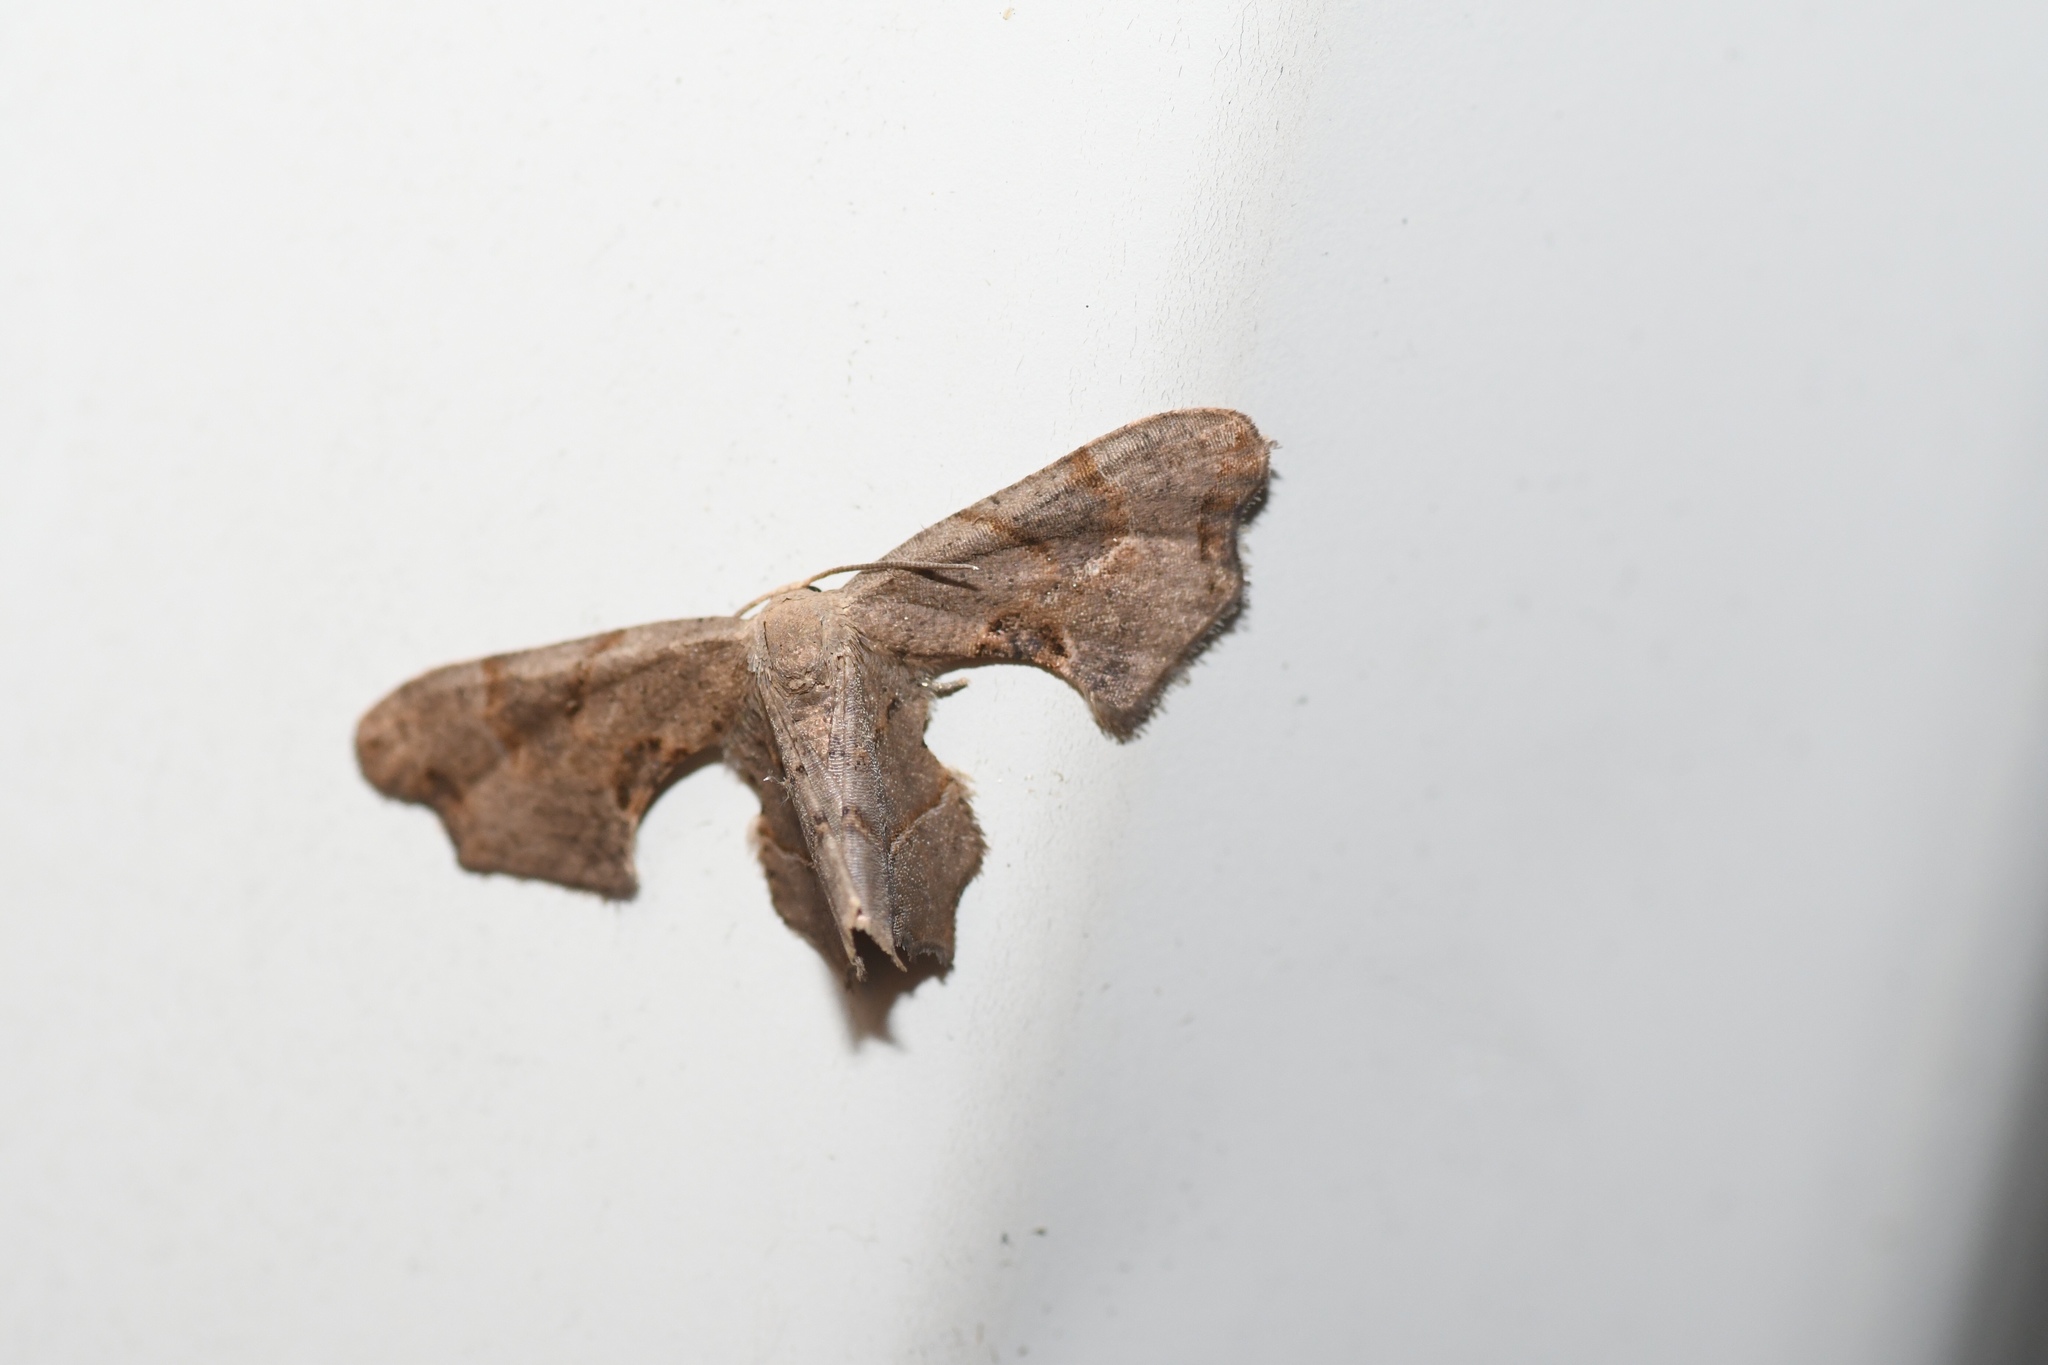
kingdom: Animalia
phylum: Arthropoda
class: Insecta
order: Lepidoptera
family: Uraniidae
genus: Epiplema
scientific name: Epiplema Calledapteryx dryopterata
